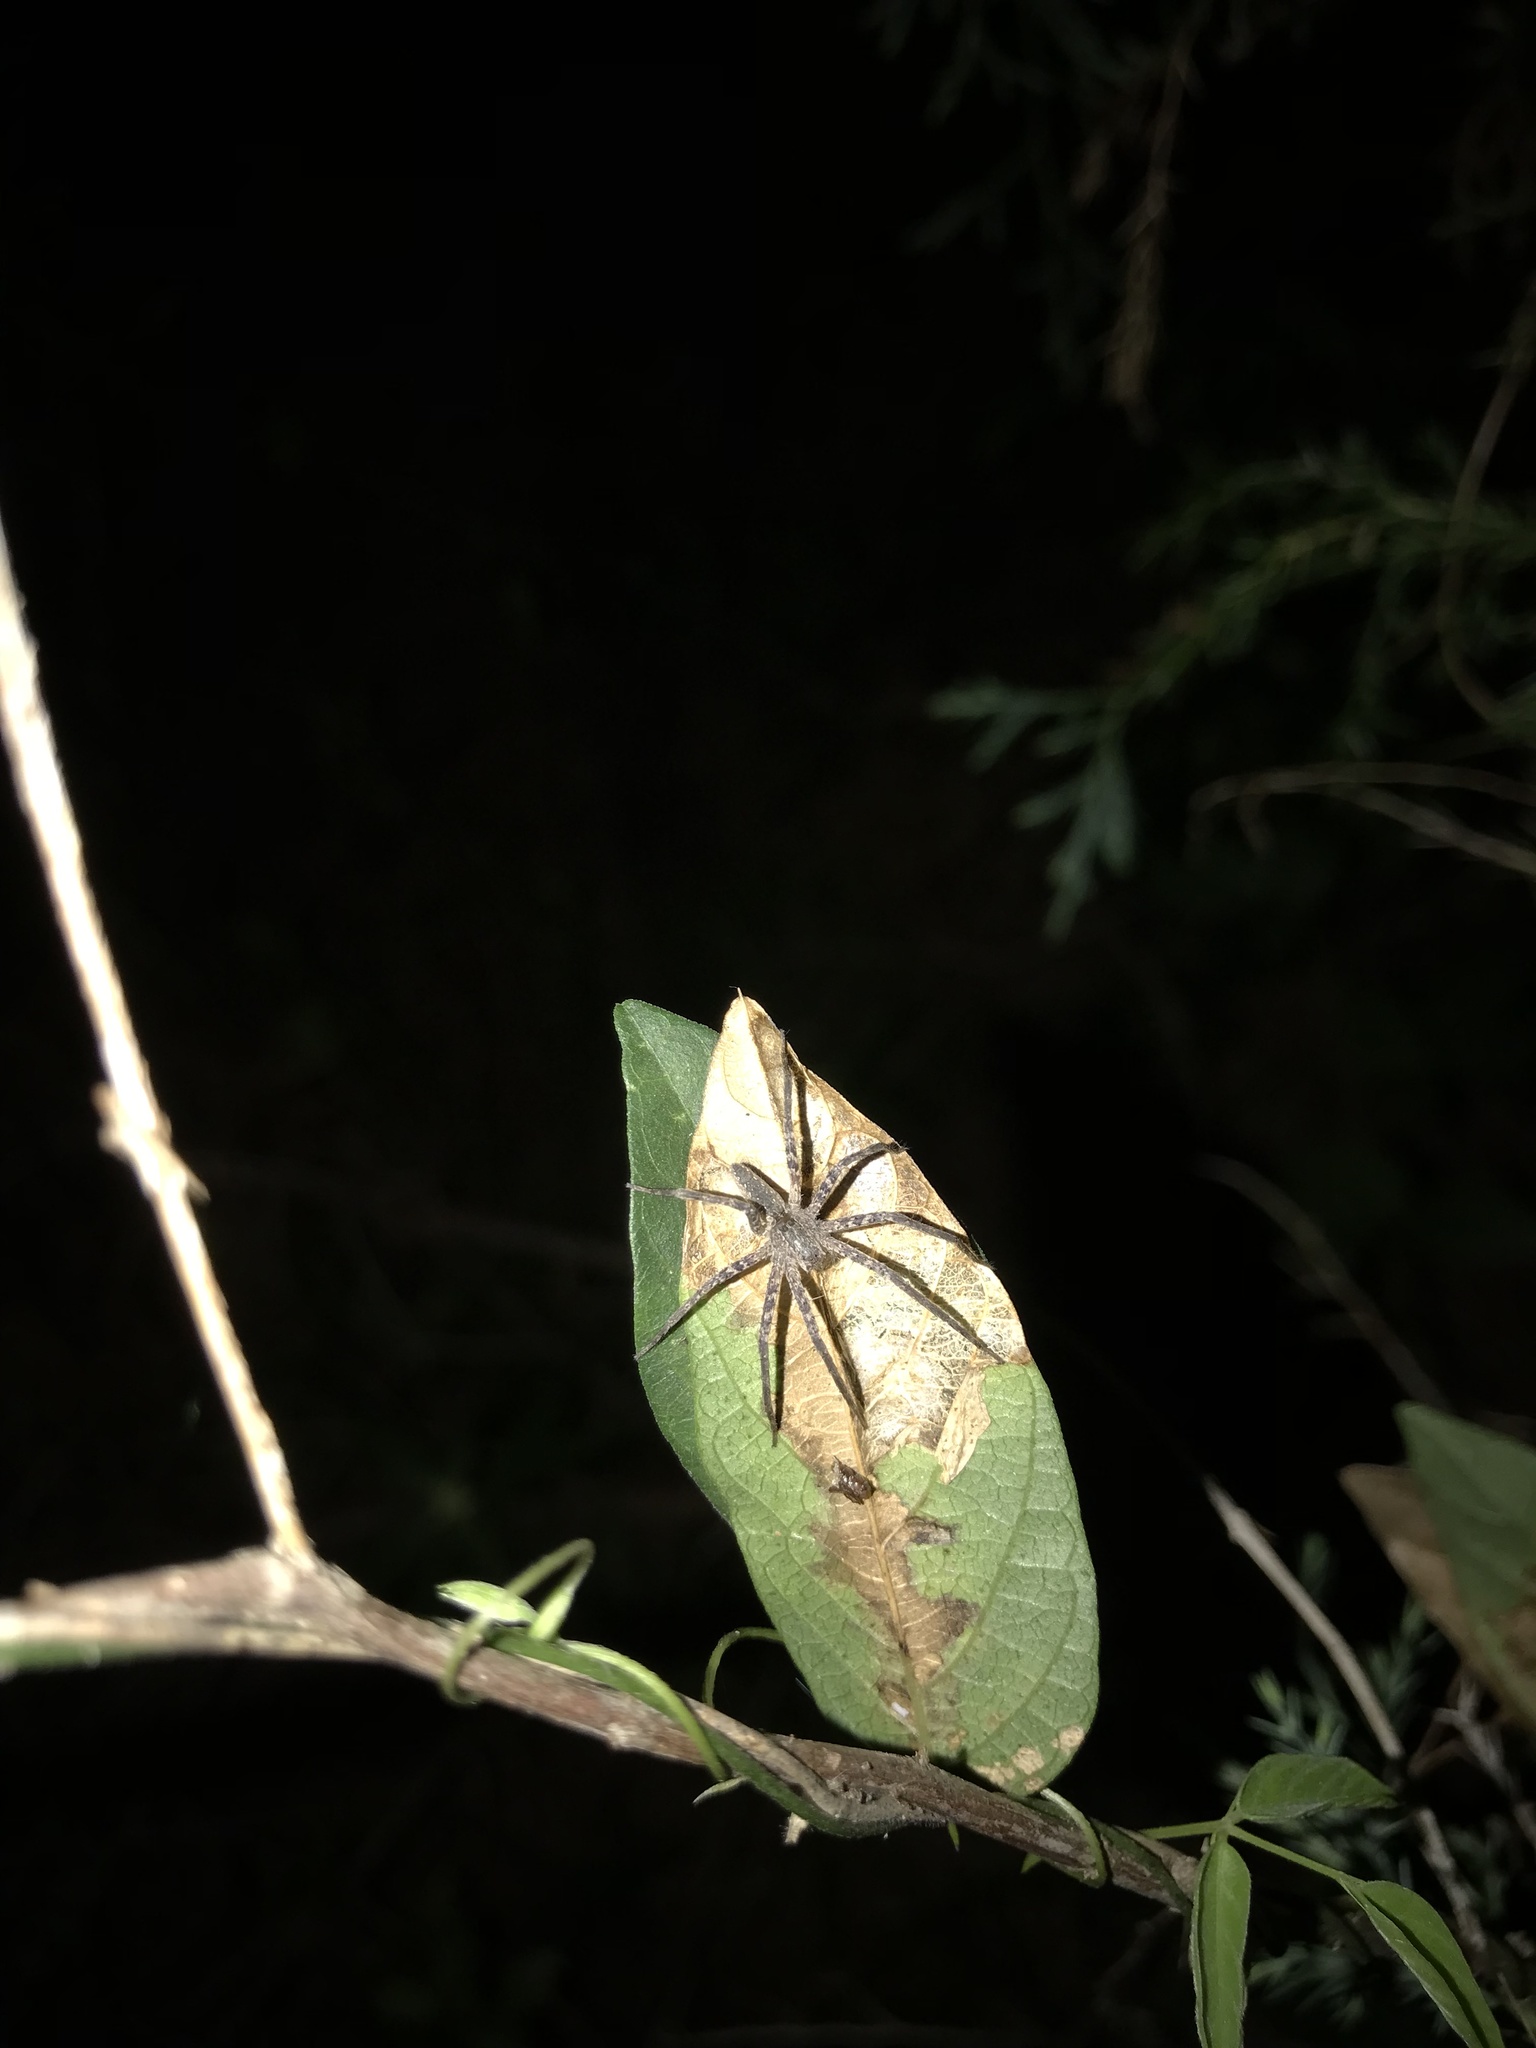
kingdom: Animalia
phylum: Arthropoda
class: Arachnida
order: Araneae
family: Pisauridae
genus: Pisaurina
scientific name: Pisaurina mira
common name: American nursery web spider
